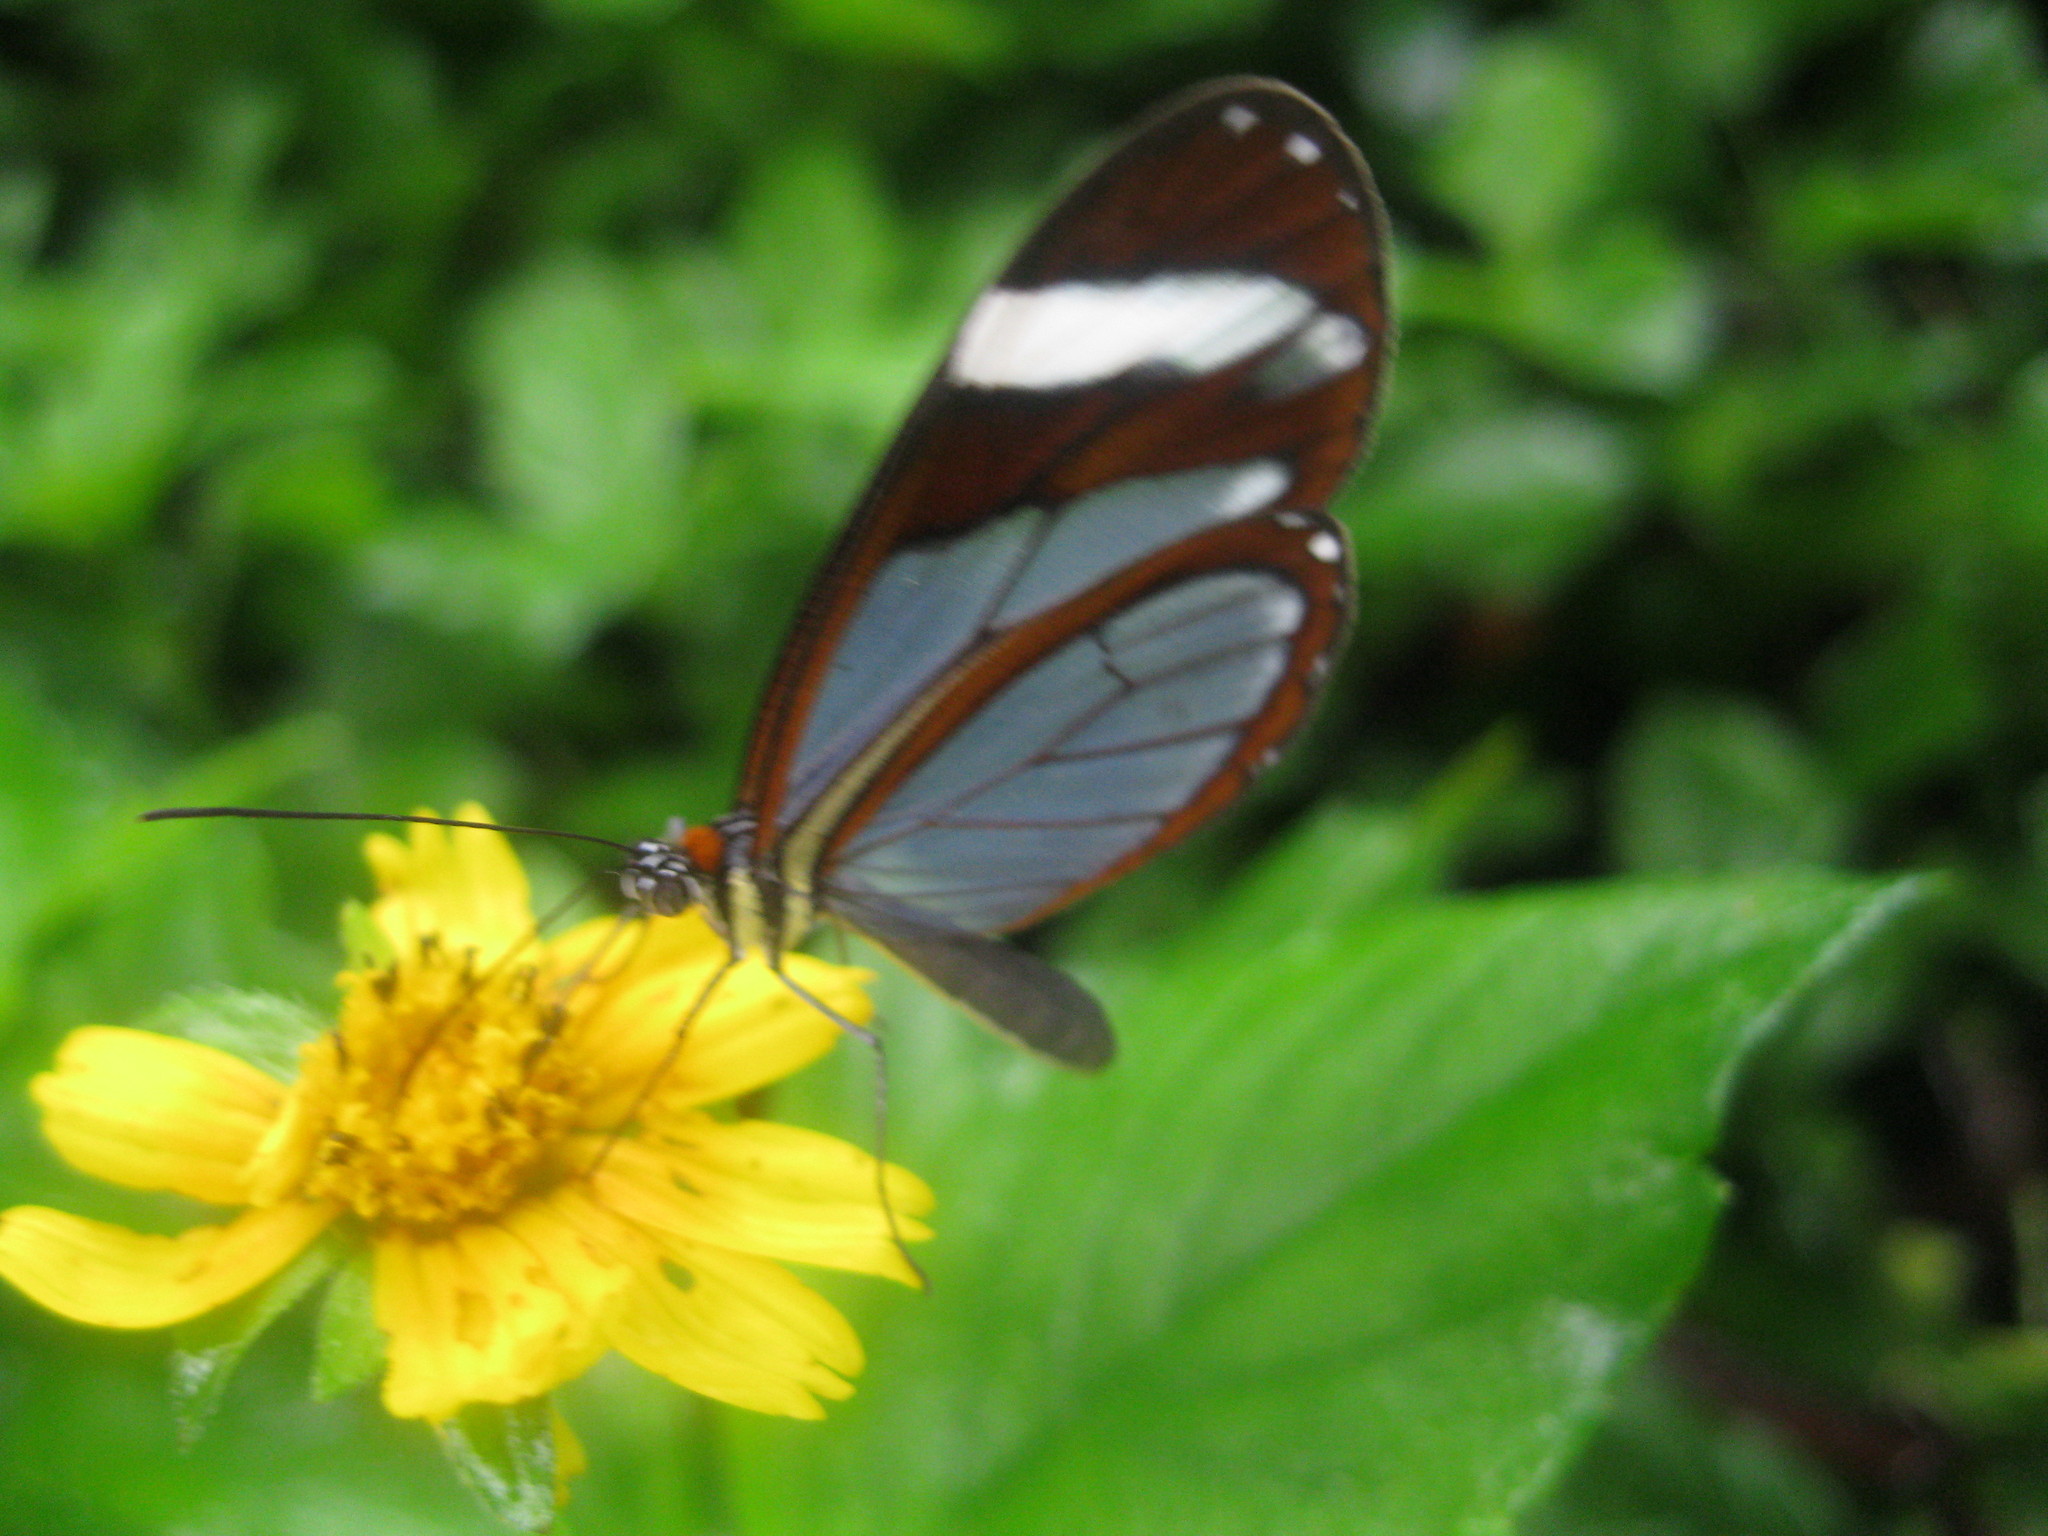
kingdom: Animalia
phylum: Arthropoda
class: Insecta
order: Lepidoptera
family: Nymphalidae
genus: Ithomia
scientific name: Ithomia patilla
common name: Patilla clearwing
